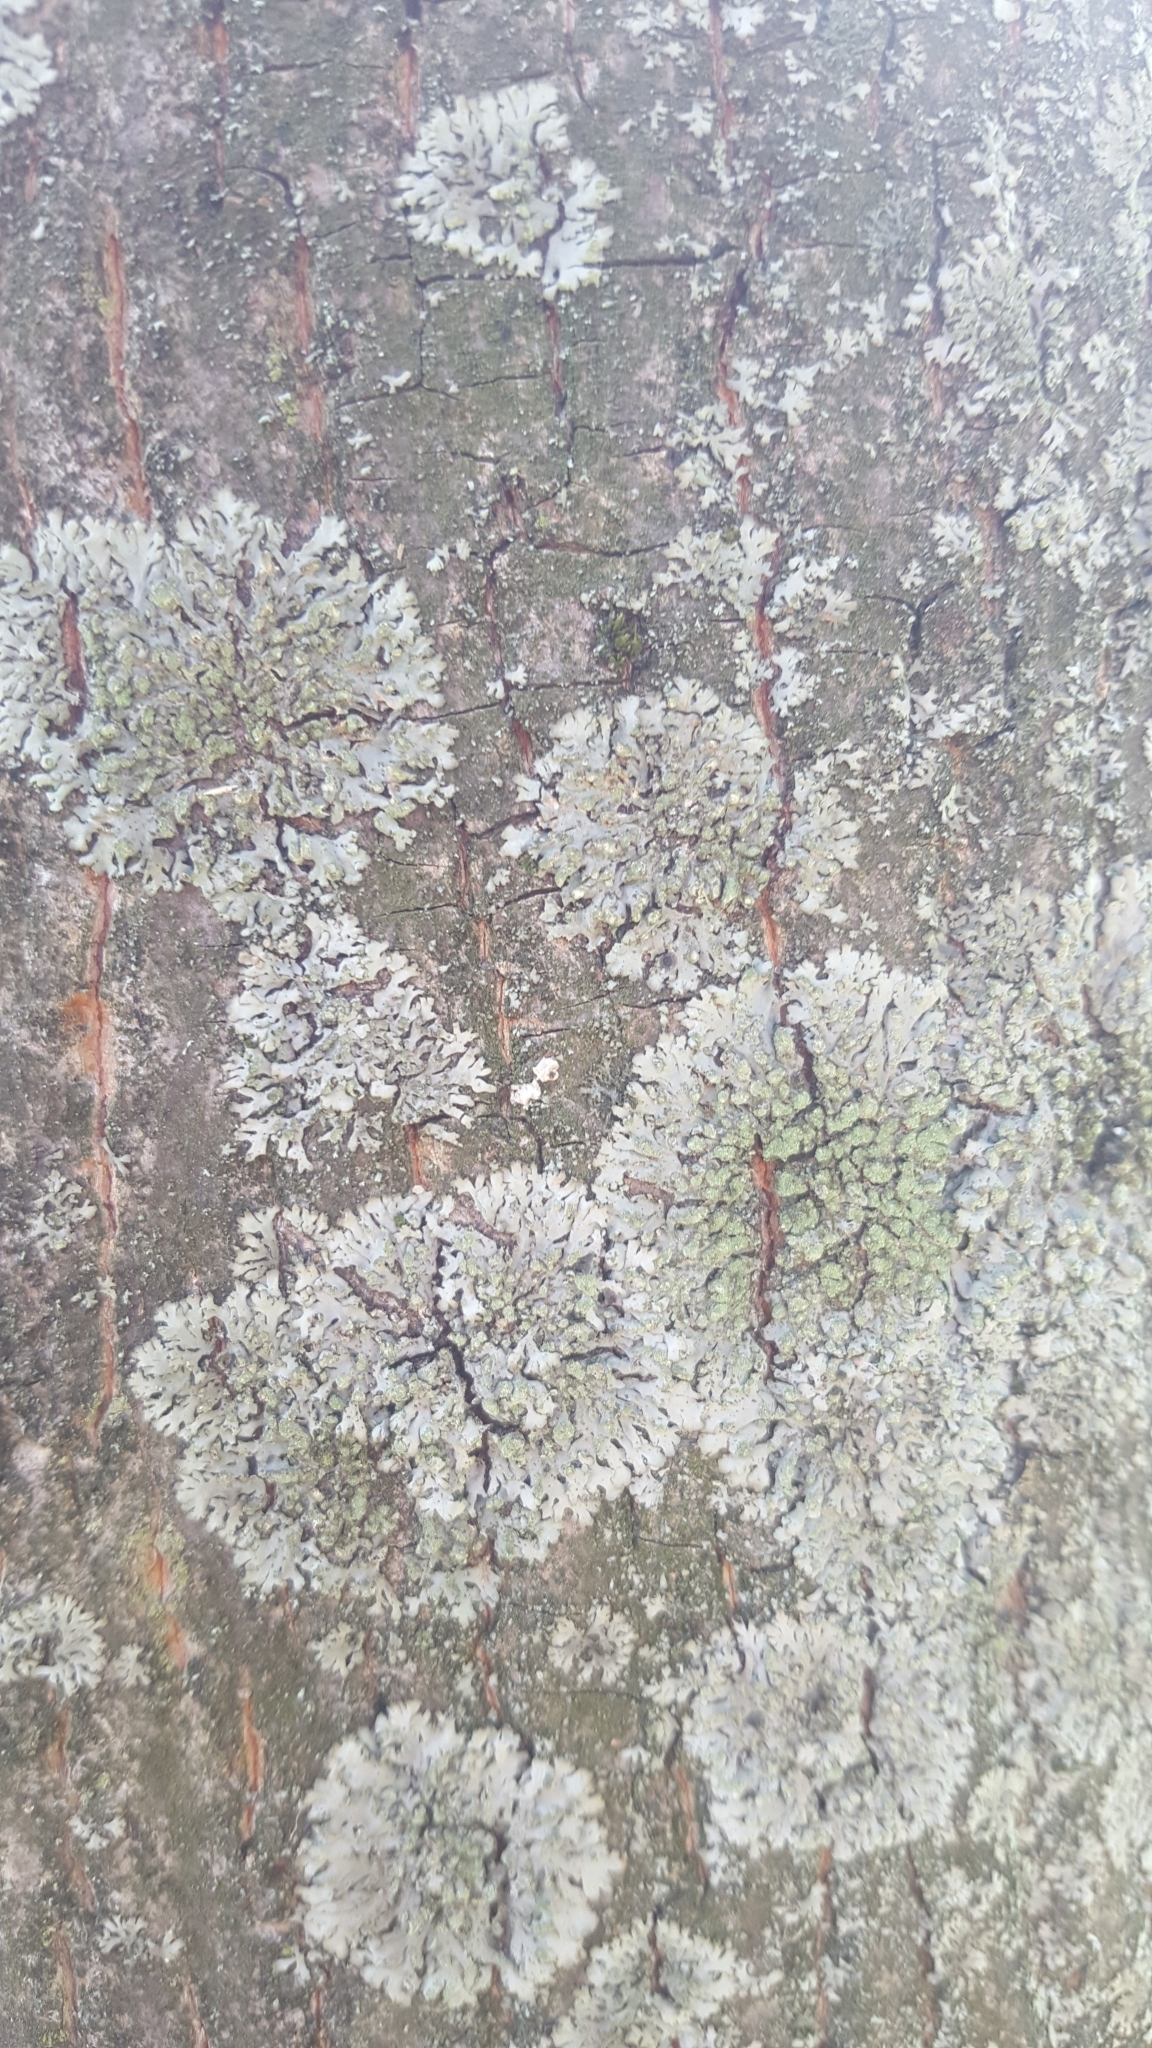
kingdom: Fungi
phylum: Ascomycota
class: Lecanoromycetes
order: Caliciales
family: Physciaceae
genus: Phaeophyscia
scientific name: Phaeophyscia orbicularis
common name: Mealy shadow lichen
